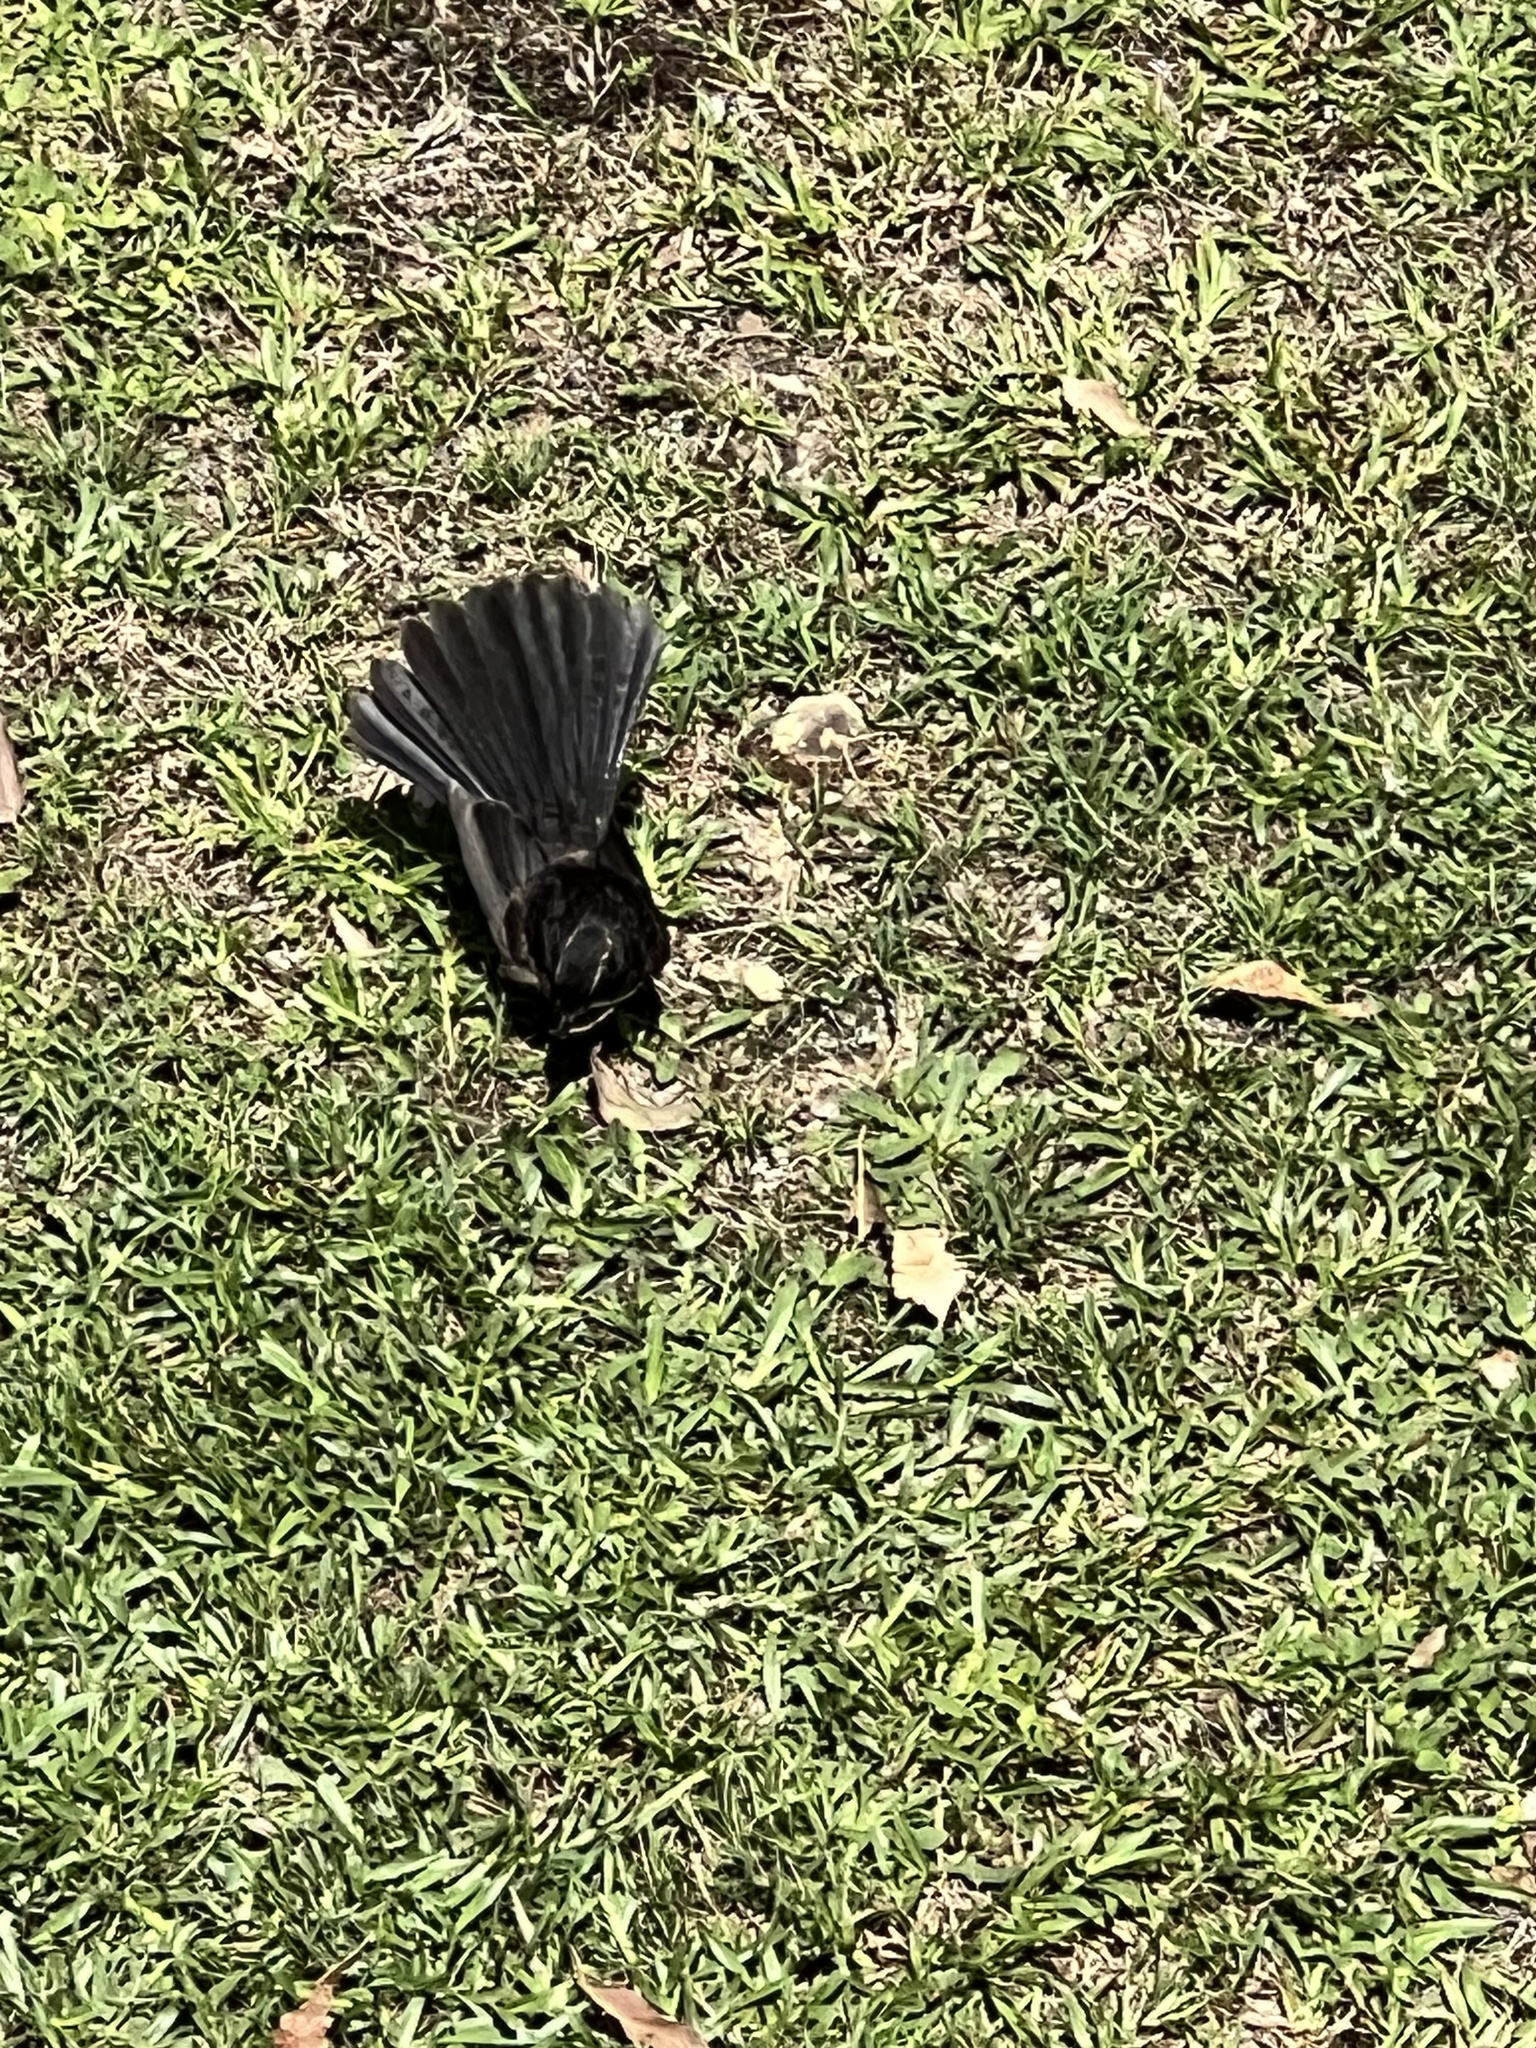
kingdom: Animalia
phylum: Chordata
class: Aves
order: Passeriformes
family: Rhipiduridae
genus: Rhipidura
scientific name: Rhipidura leucophrys
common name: Willie wagtail
